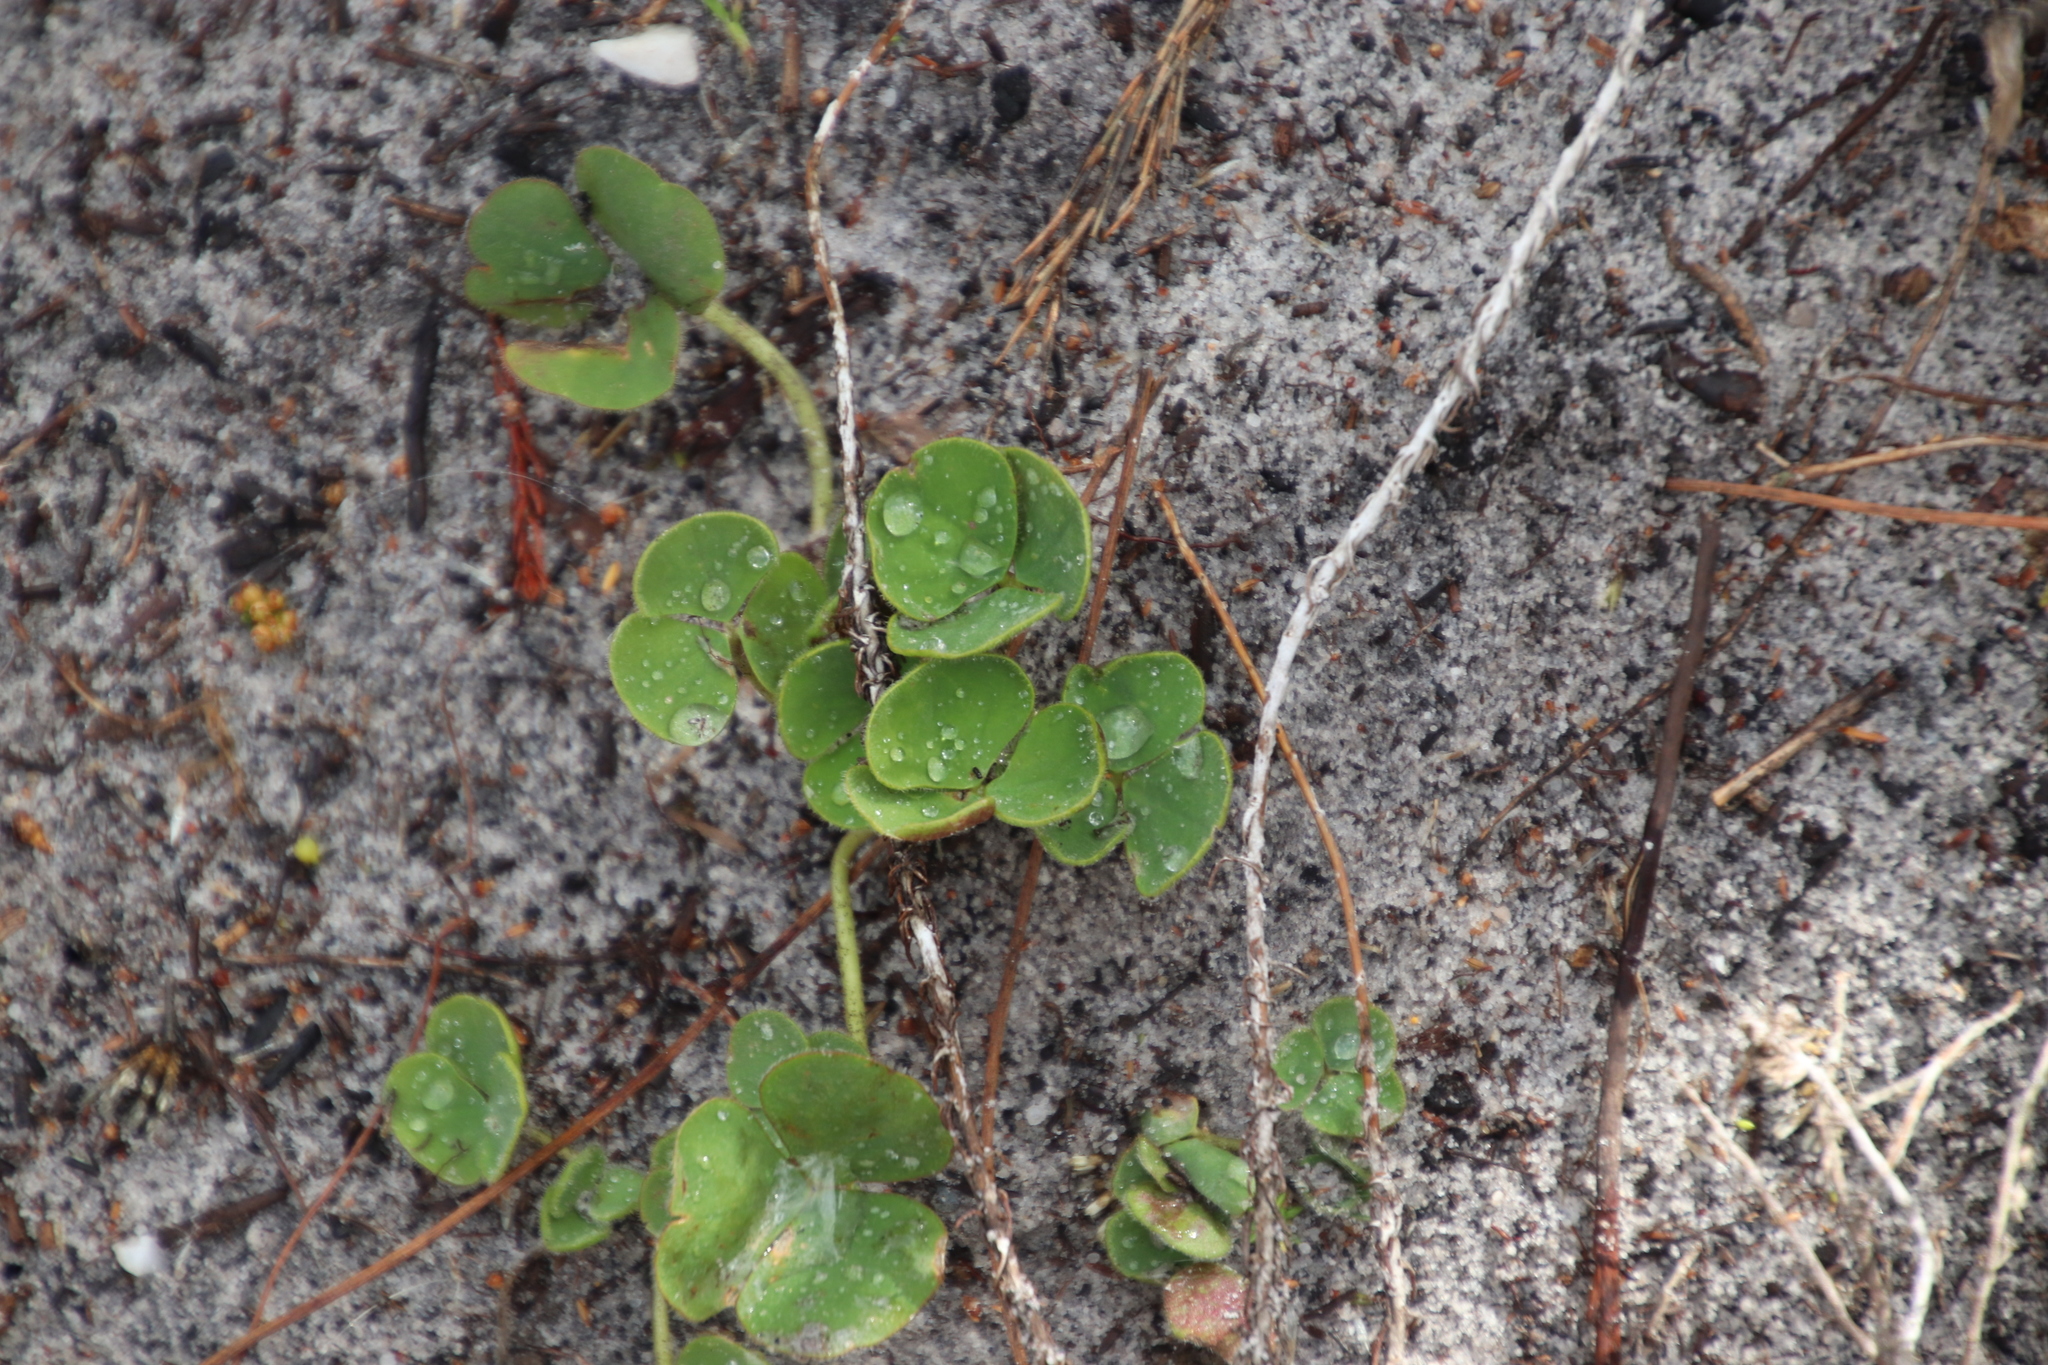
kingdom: Plantae
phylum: Tracheophyta
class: Magnoliopsida
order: Oxalidales
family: Oxalidaceae
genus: Oxalis
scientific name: Oxalis luteola
